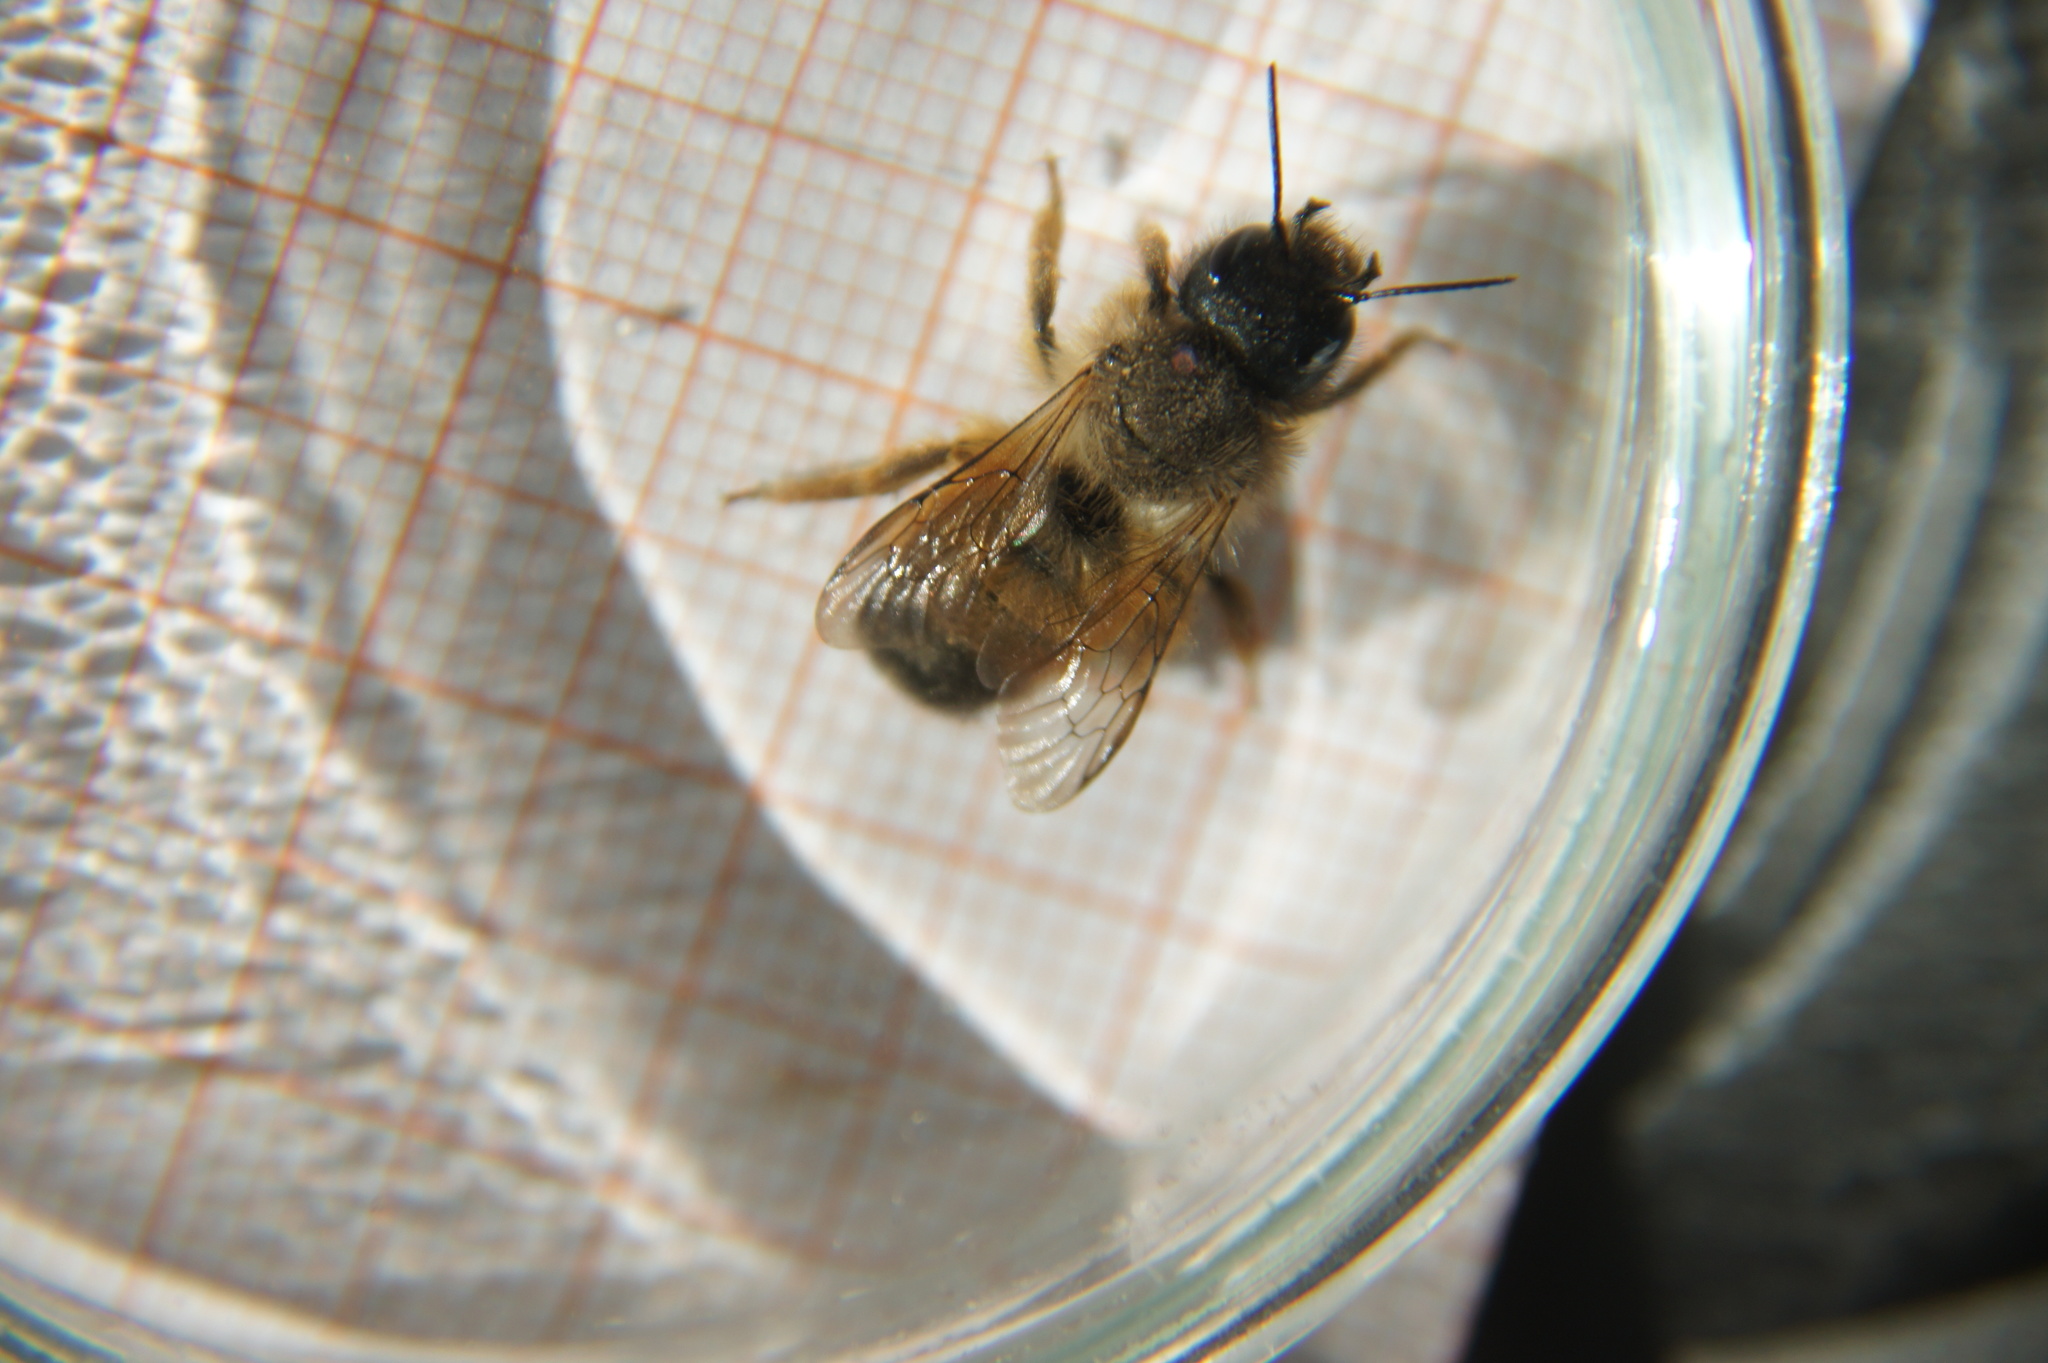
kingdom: Animalia
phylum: Arthropoda
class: Insecta
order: Hymenoptera
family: Megachilidae
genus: Osmia
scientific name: Osmia bicornis
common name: Red mason bee
